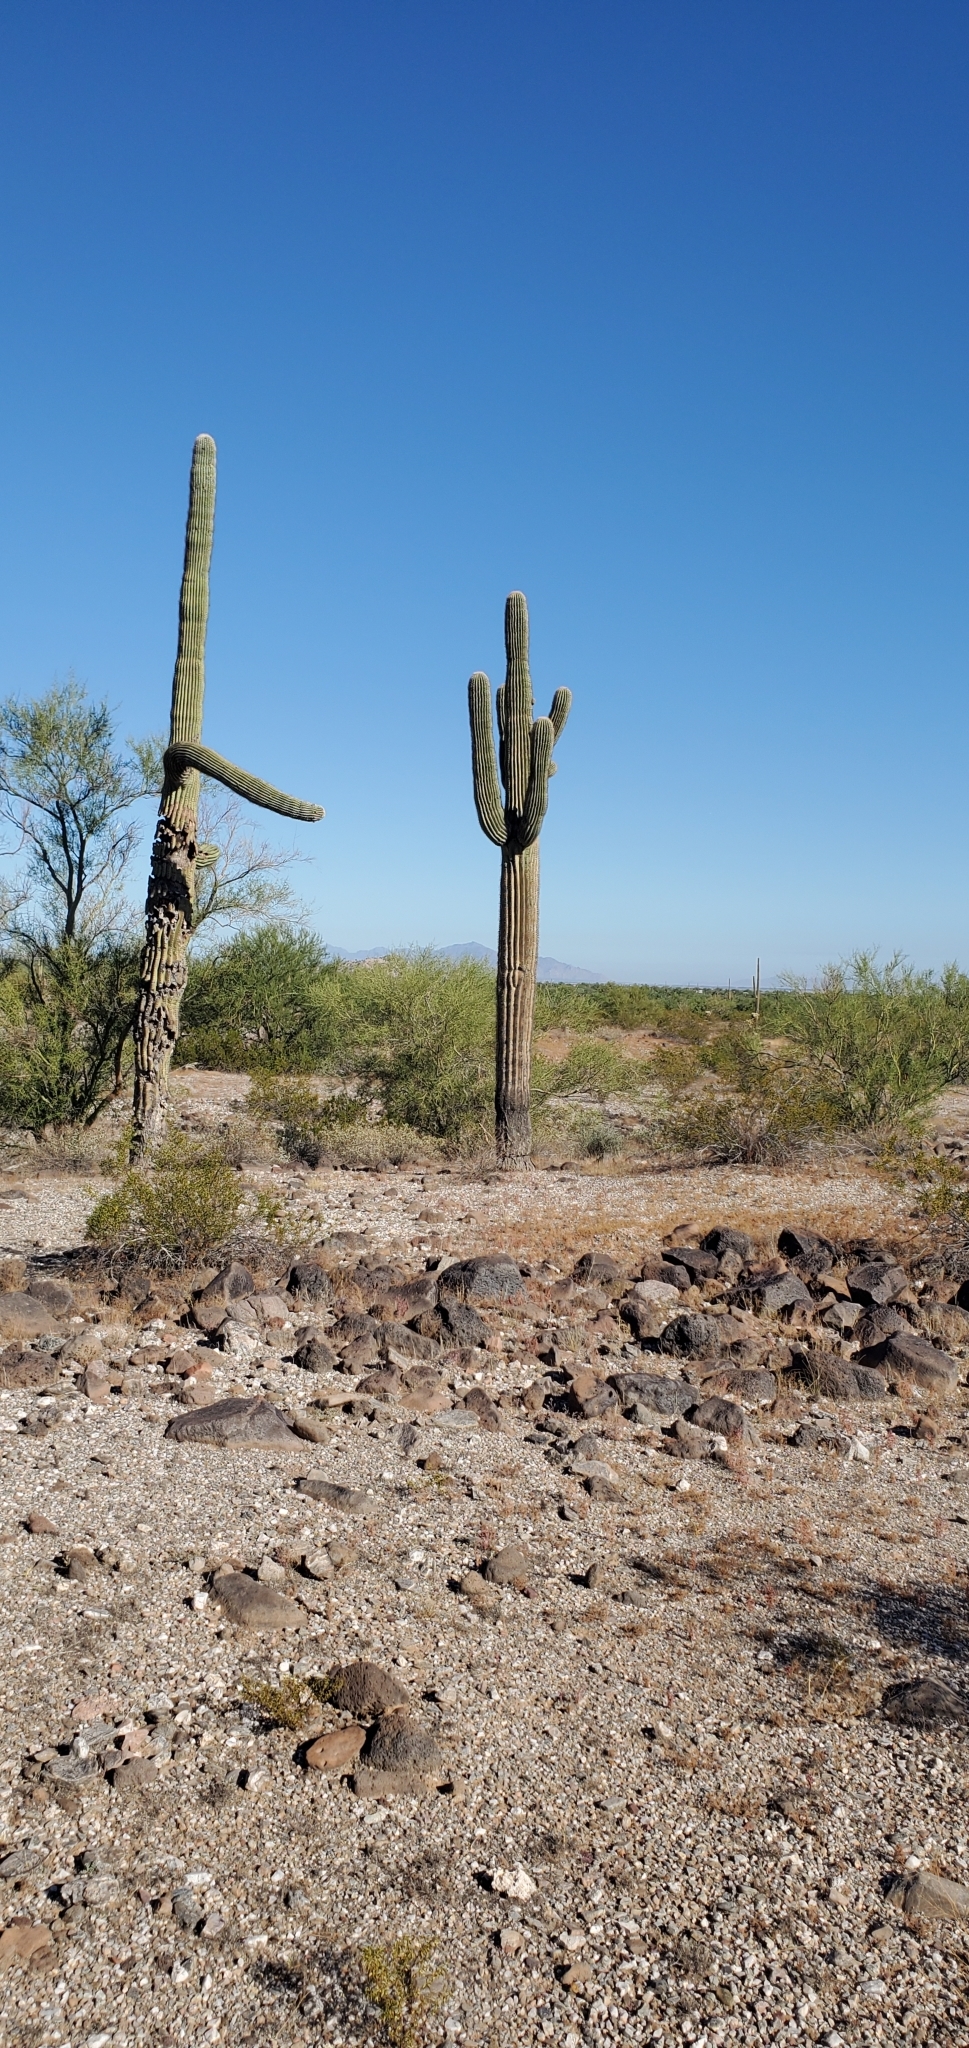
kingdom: Plantae
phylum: Tracheophyta
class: Magnoliopsida
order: Caryophyllales
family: Cactaceae
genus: Carnegiea
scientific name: Carnegiea gigantea
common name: Saguaro
